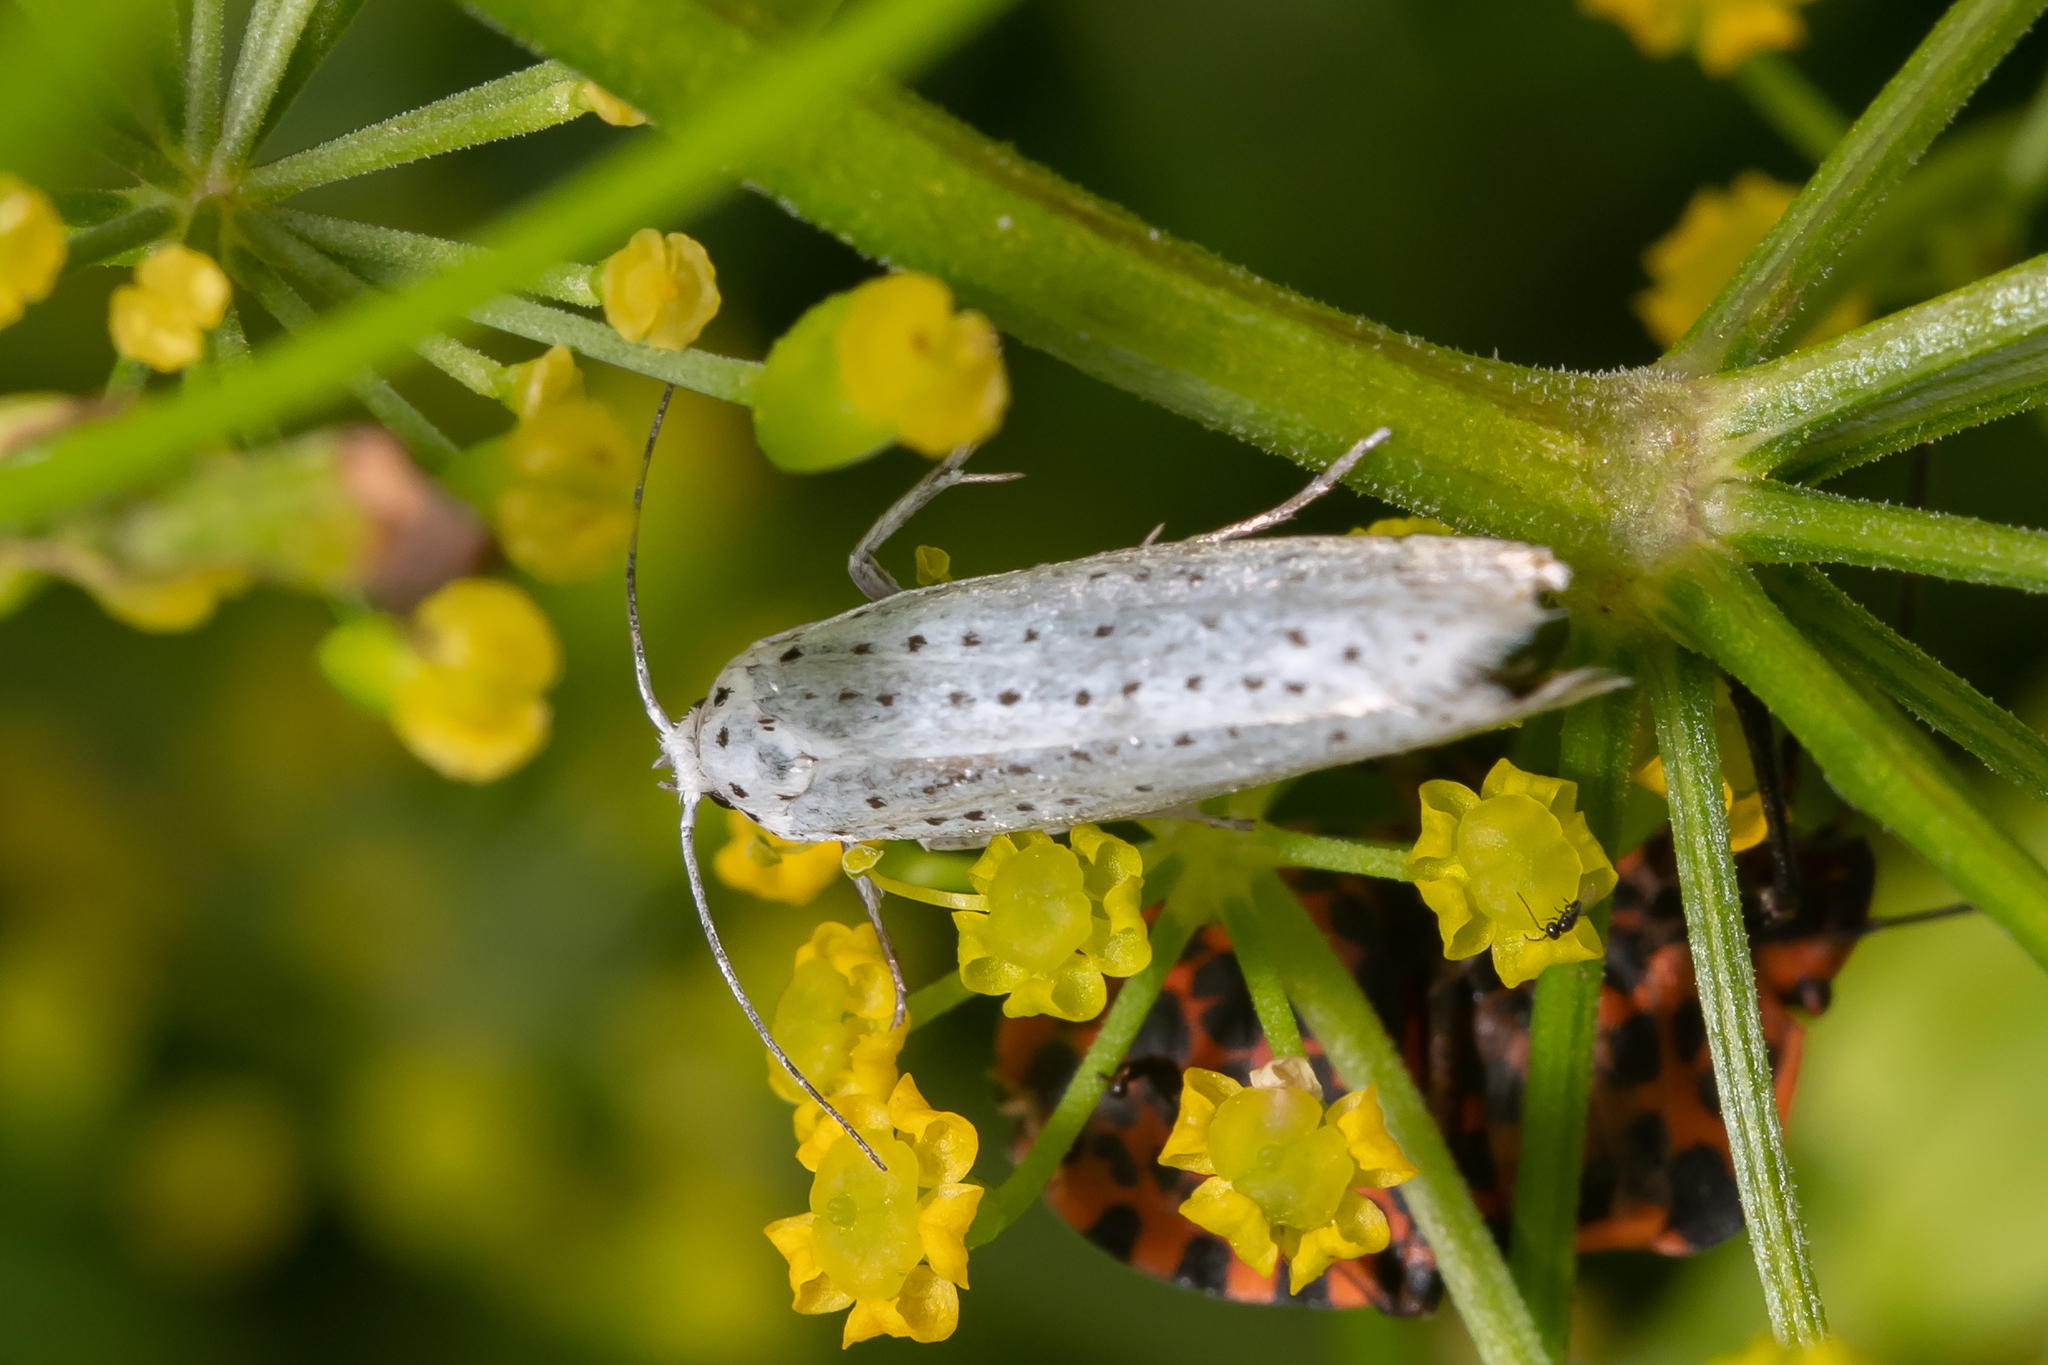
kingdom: Animalia
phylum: Arthropoda
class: Insecta
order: Lepidoptera
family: Yponomeutidae
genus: Yponomeuta
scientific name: Yponomeuta evonymella
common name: Bird-cherry ermine
